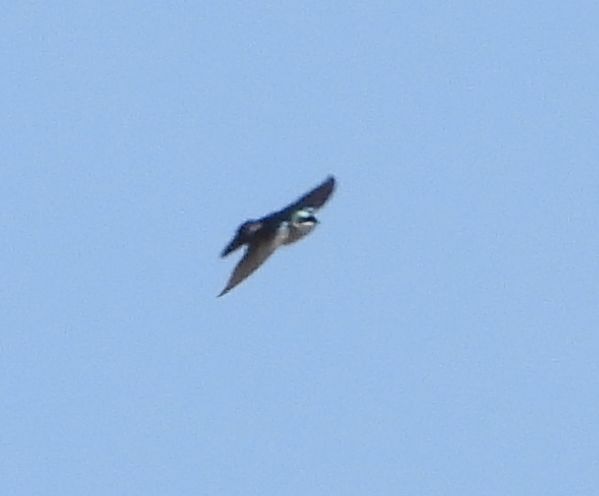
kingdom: Animalia
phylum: Chordata
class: Aves
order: Passeriformes
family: Hirundinidae
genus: Tachycineta
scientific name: Tachycineta bicolor
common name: Tree swallow
